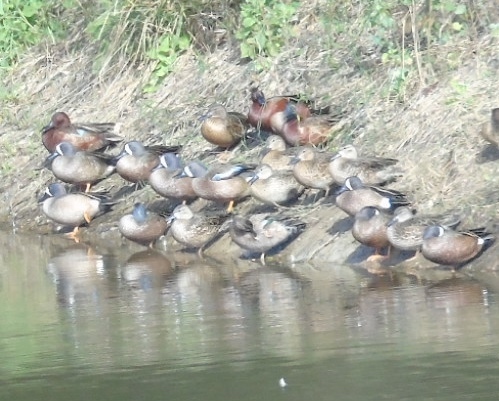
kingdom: Animalia
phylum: Chordata
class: Aves
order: Anseriformes
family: Anatidae
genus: Spatula
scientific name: Spatula cyanoptera
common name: Cinnamon teal
